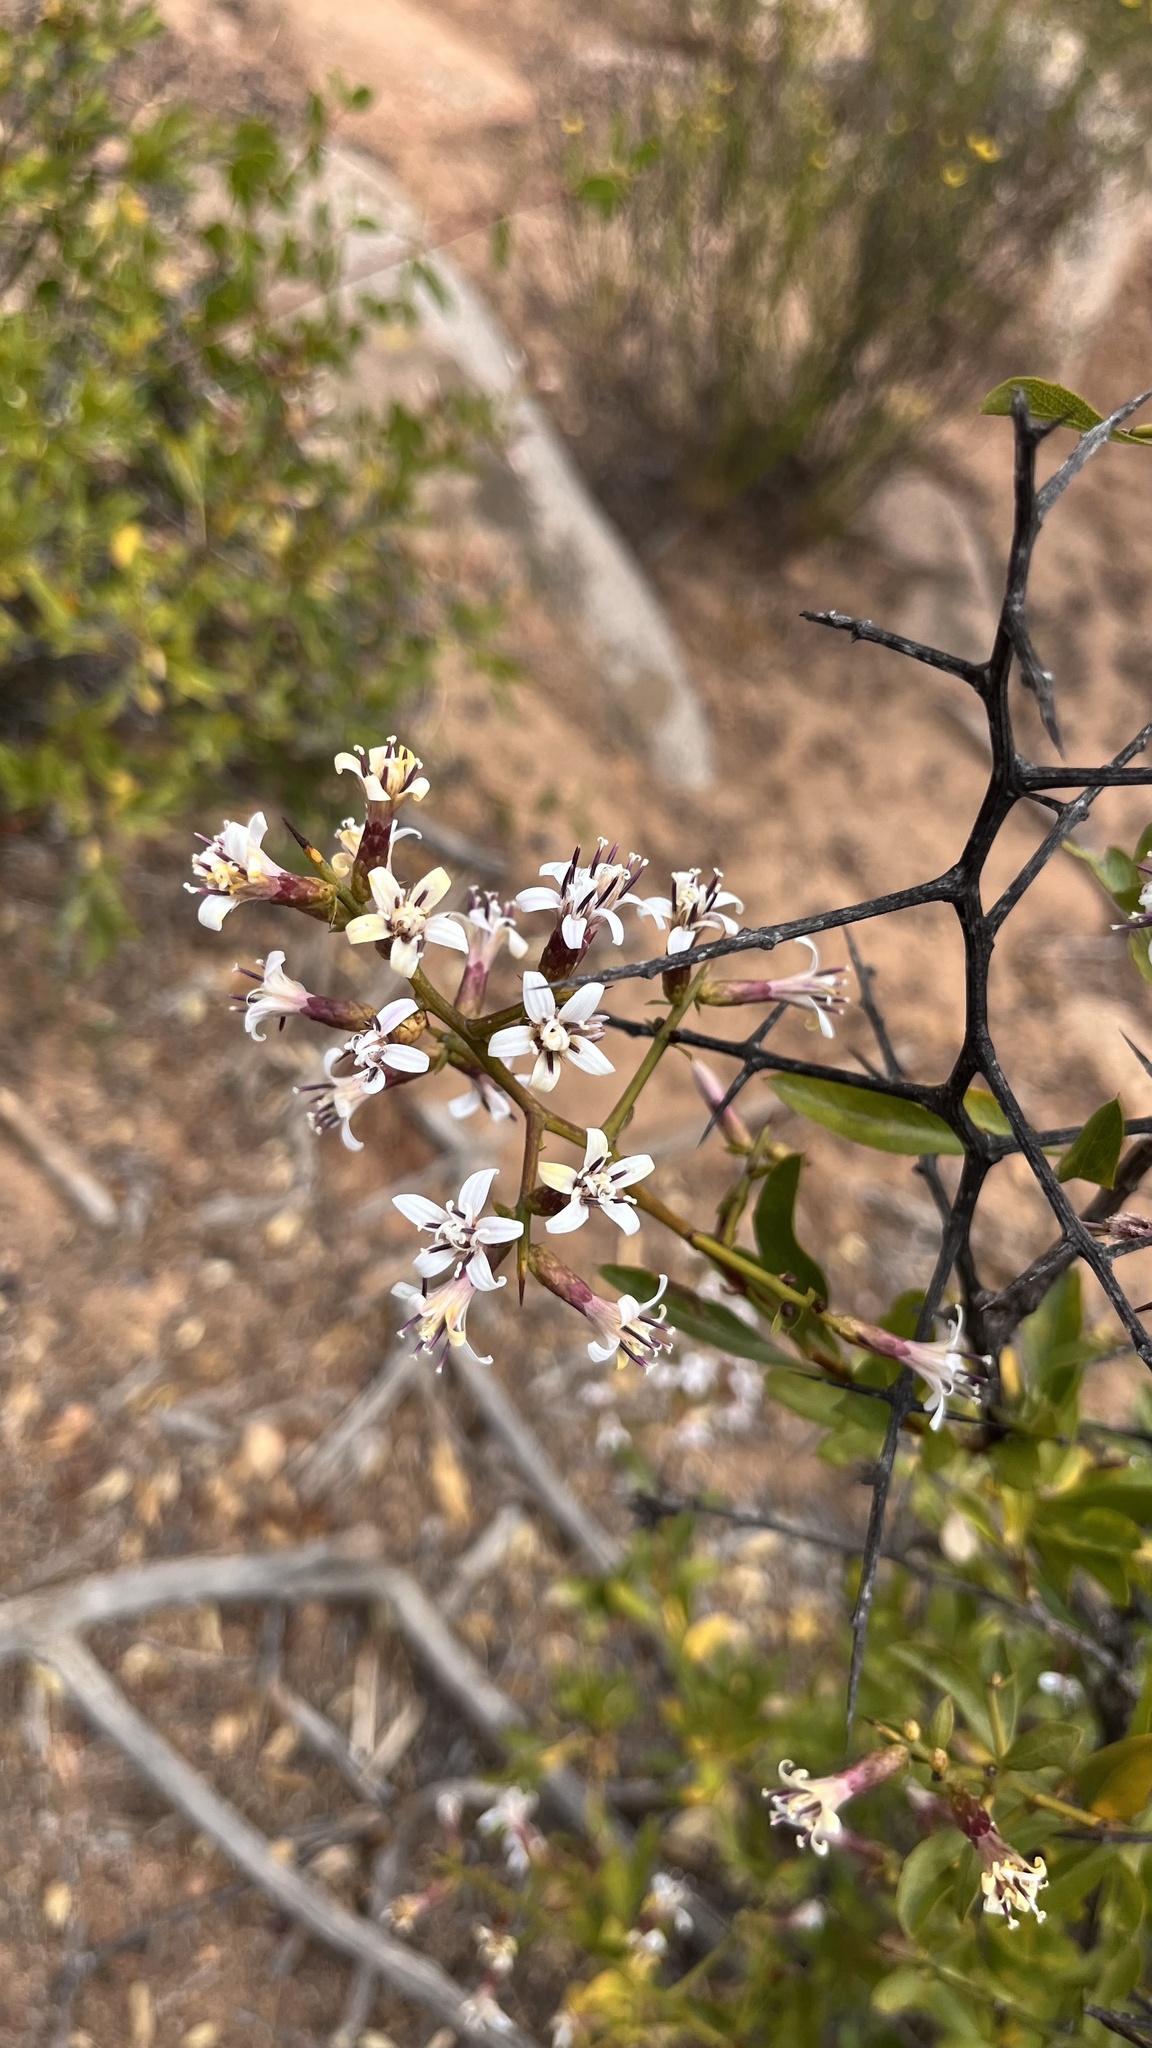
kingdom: Plantae
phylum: Tracheophyta
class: Magnoliopsida
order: Asterales
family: Asteraceae
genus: Proustia
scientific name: Proustia cuneifolia
